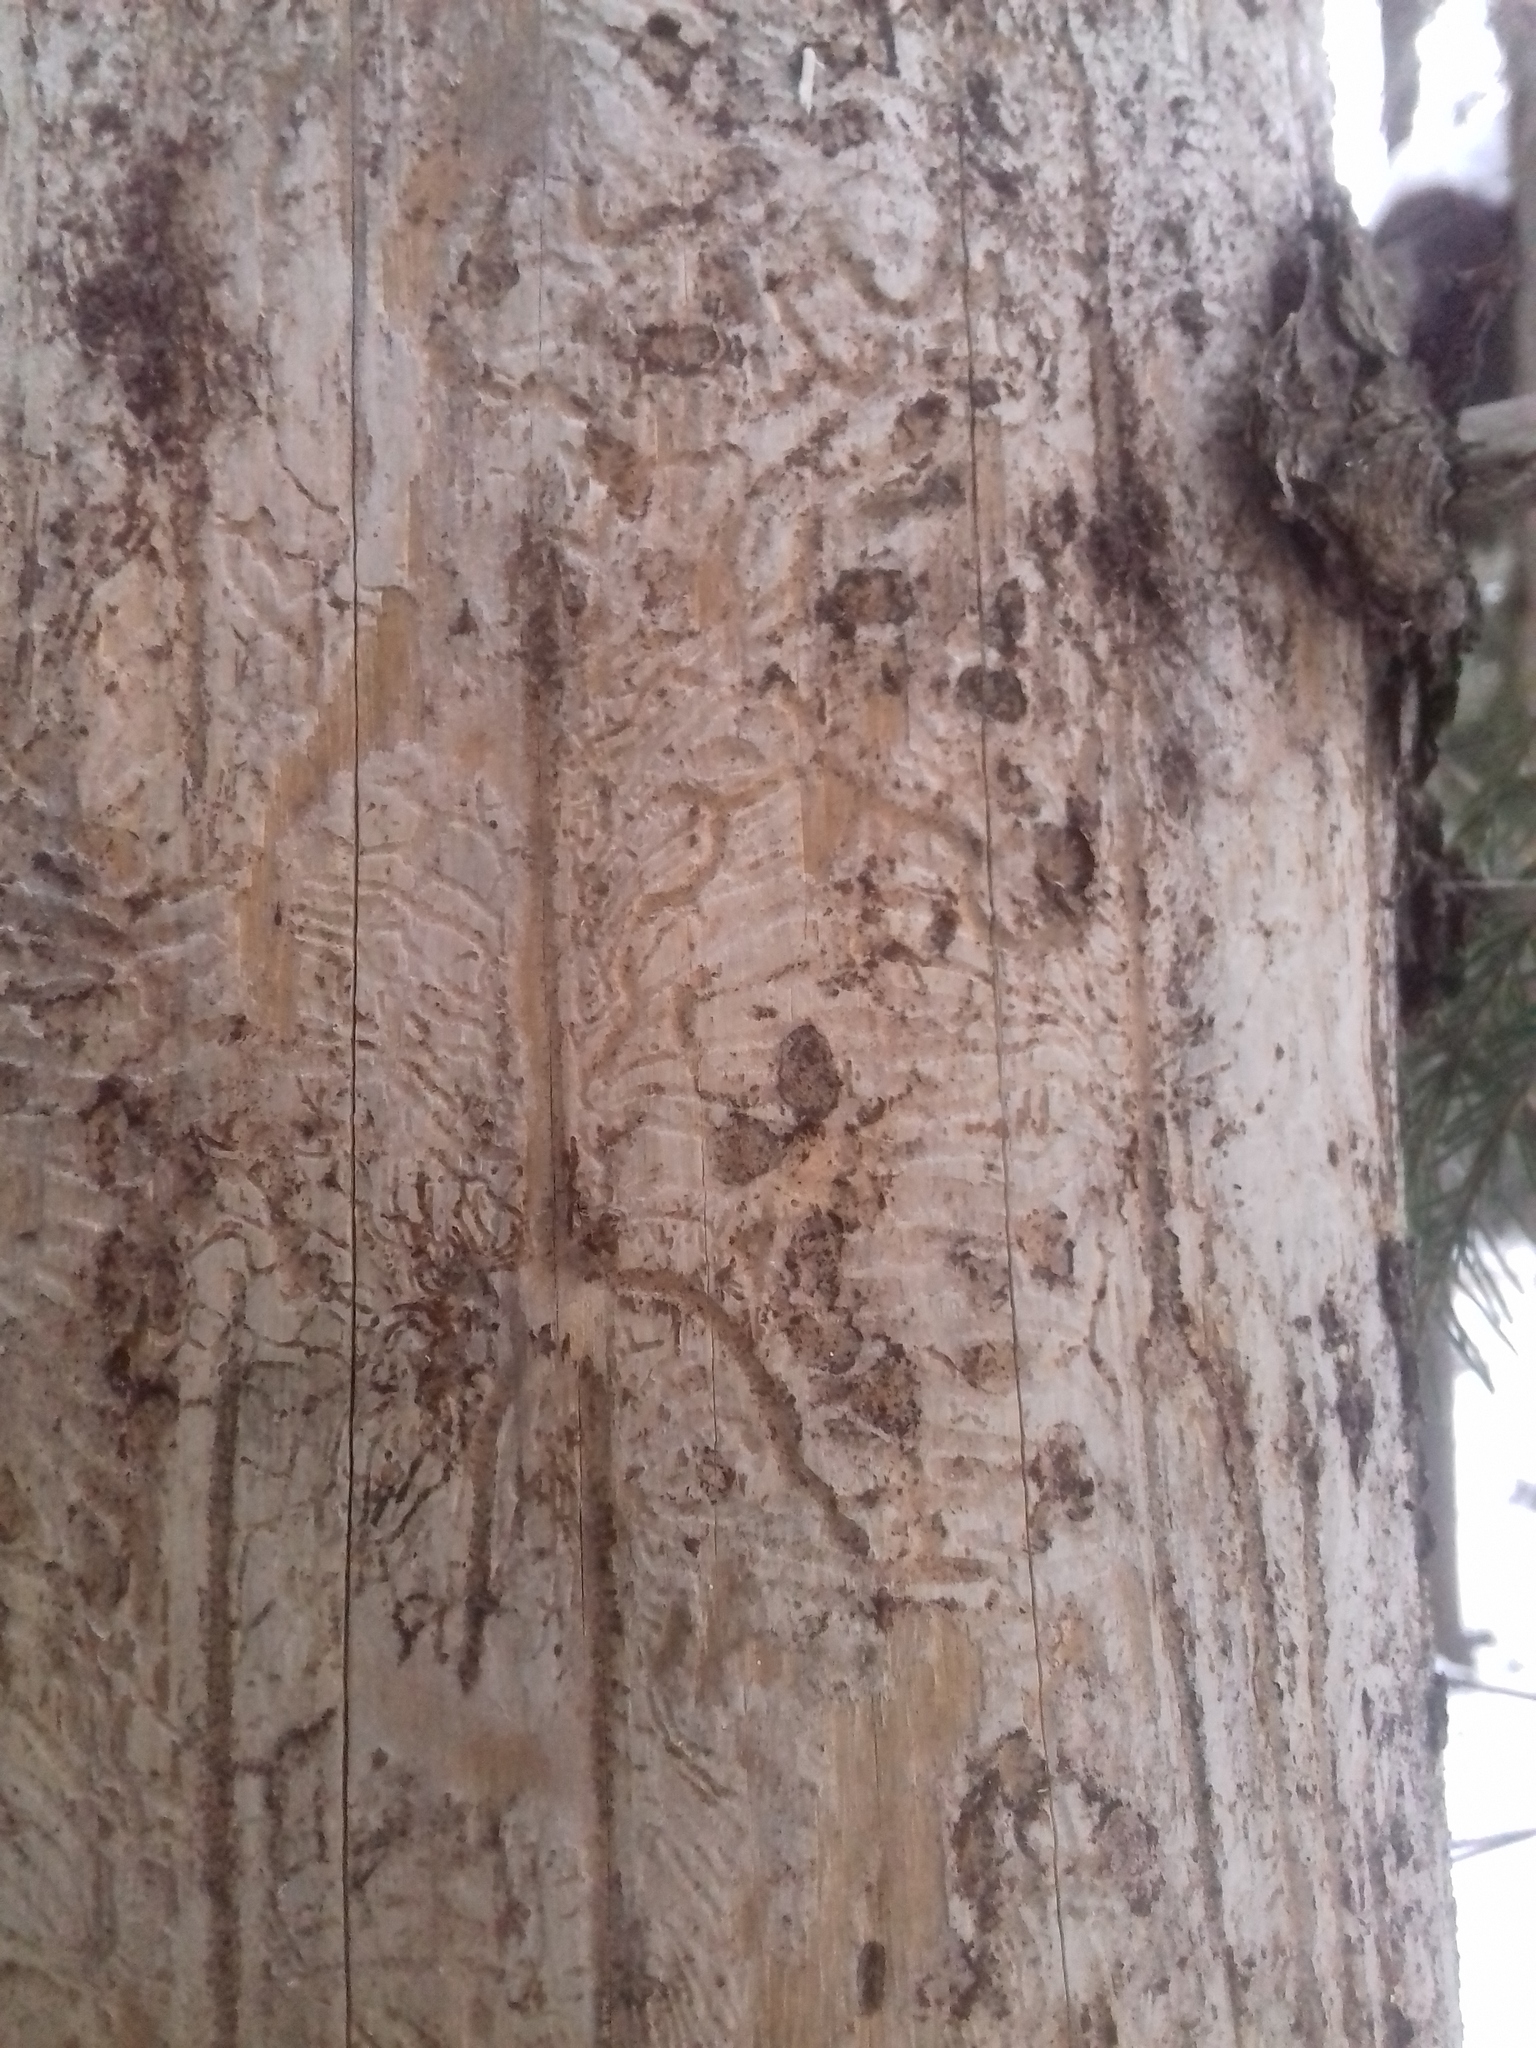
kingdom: Animalia
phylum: Arthropoda
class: Insecta
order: Coleoptera
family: Curculionidae
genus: Ips
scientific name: Ips typographus
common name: Eight-toothed spruce bark beetle
